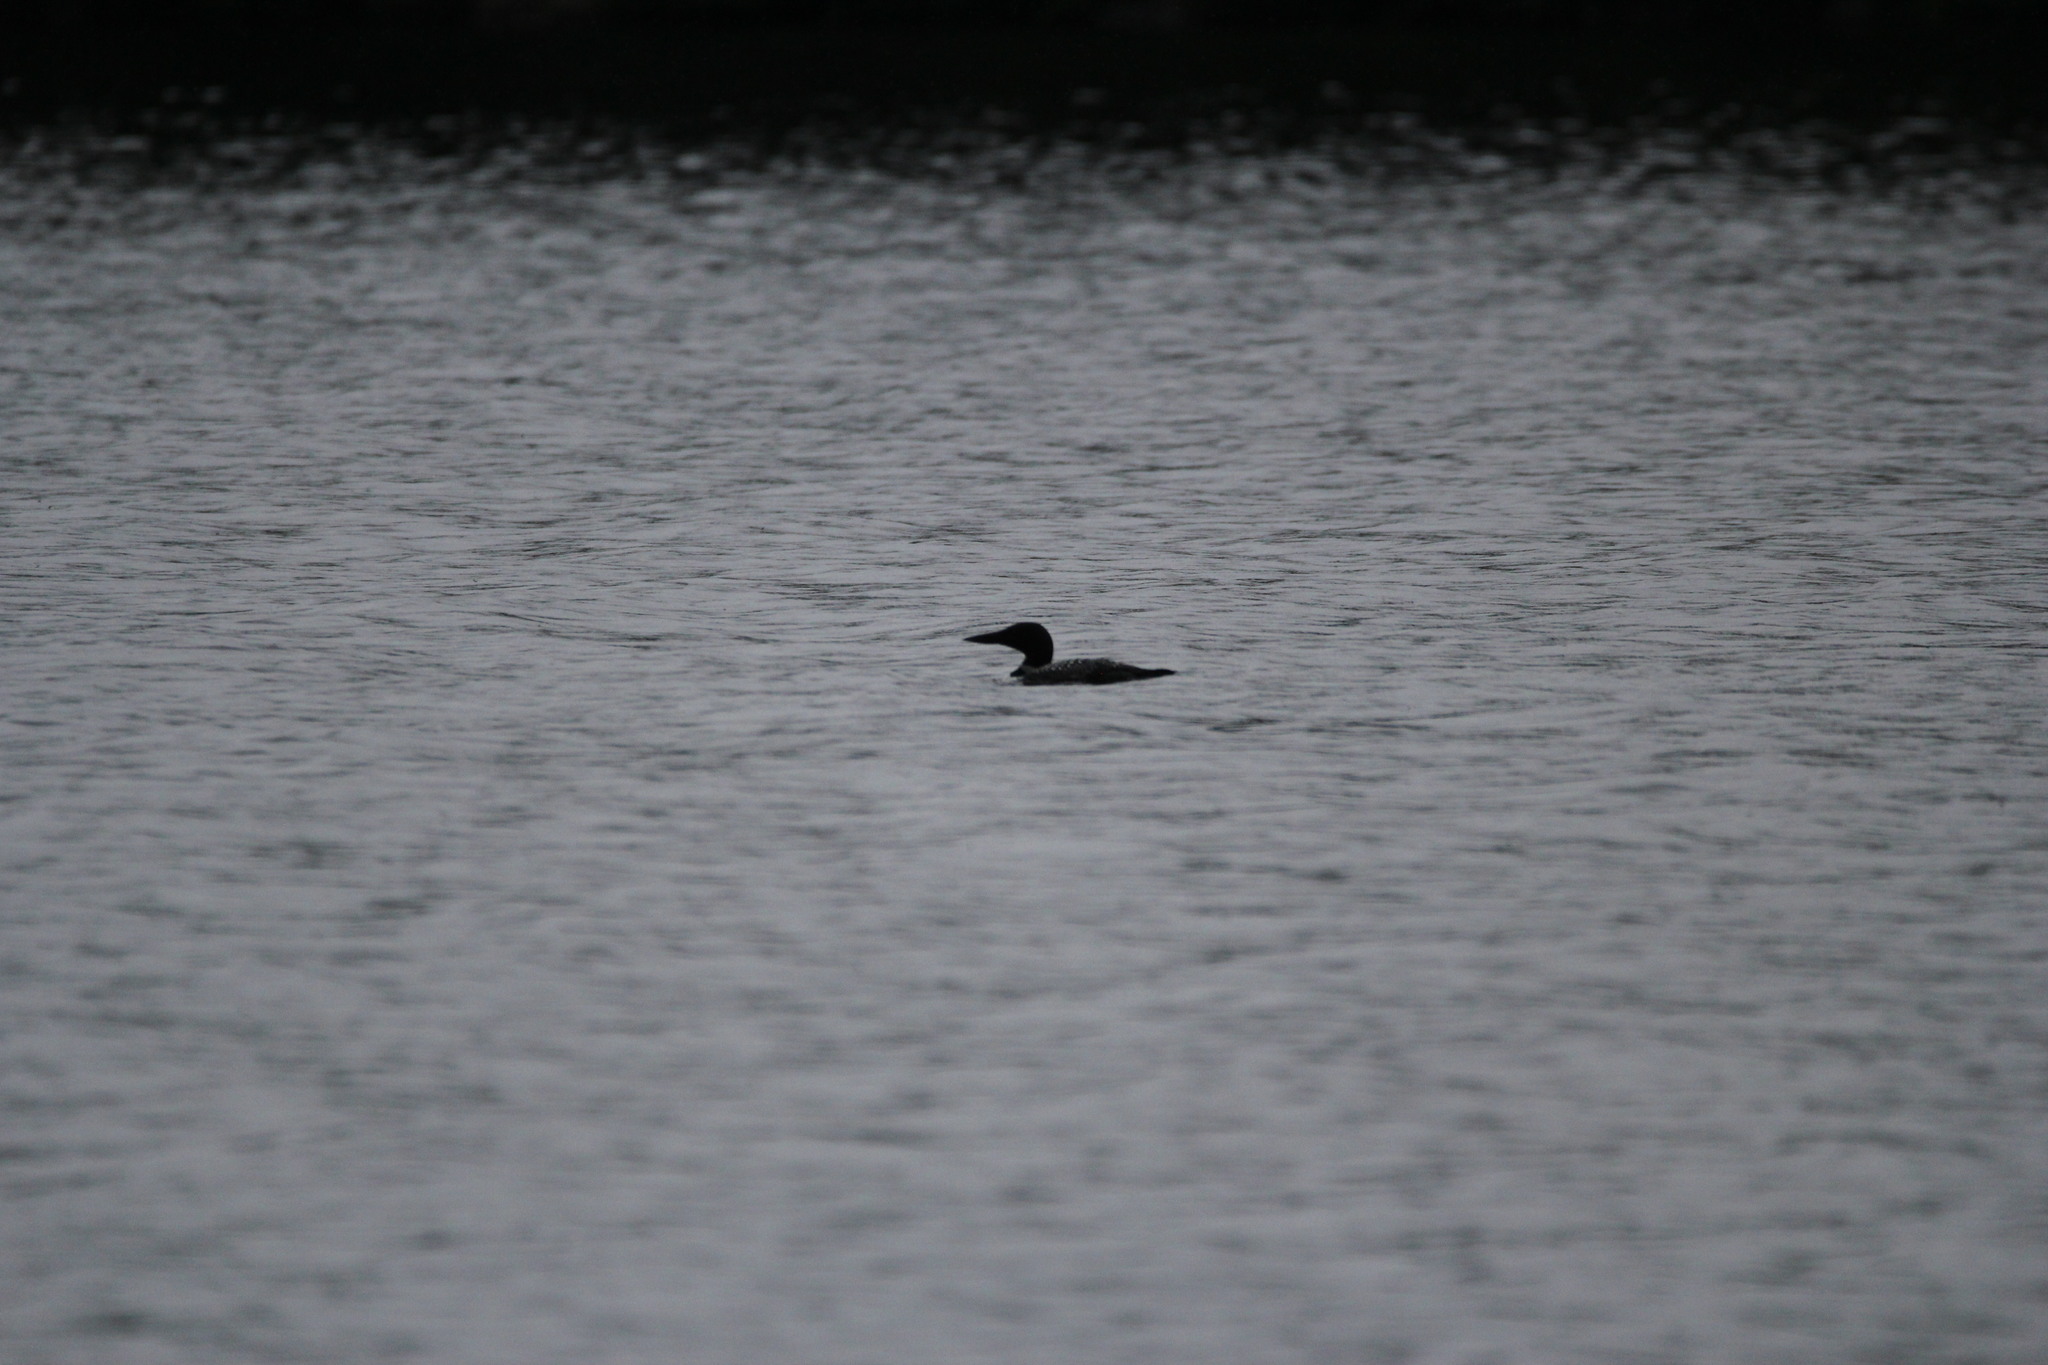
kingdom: Animalia
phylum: Chordata
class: Aves
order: Gaviiformes
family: Gaviidae
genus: Gavia
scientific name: Gavia immer
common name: Common loon
